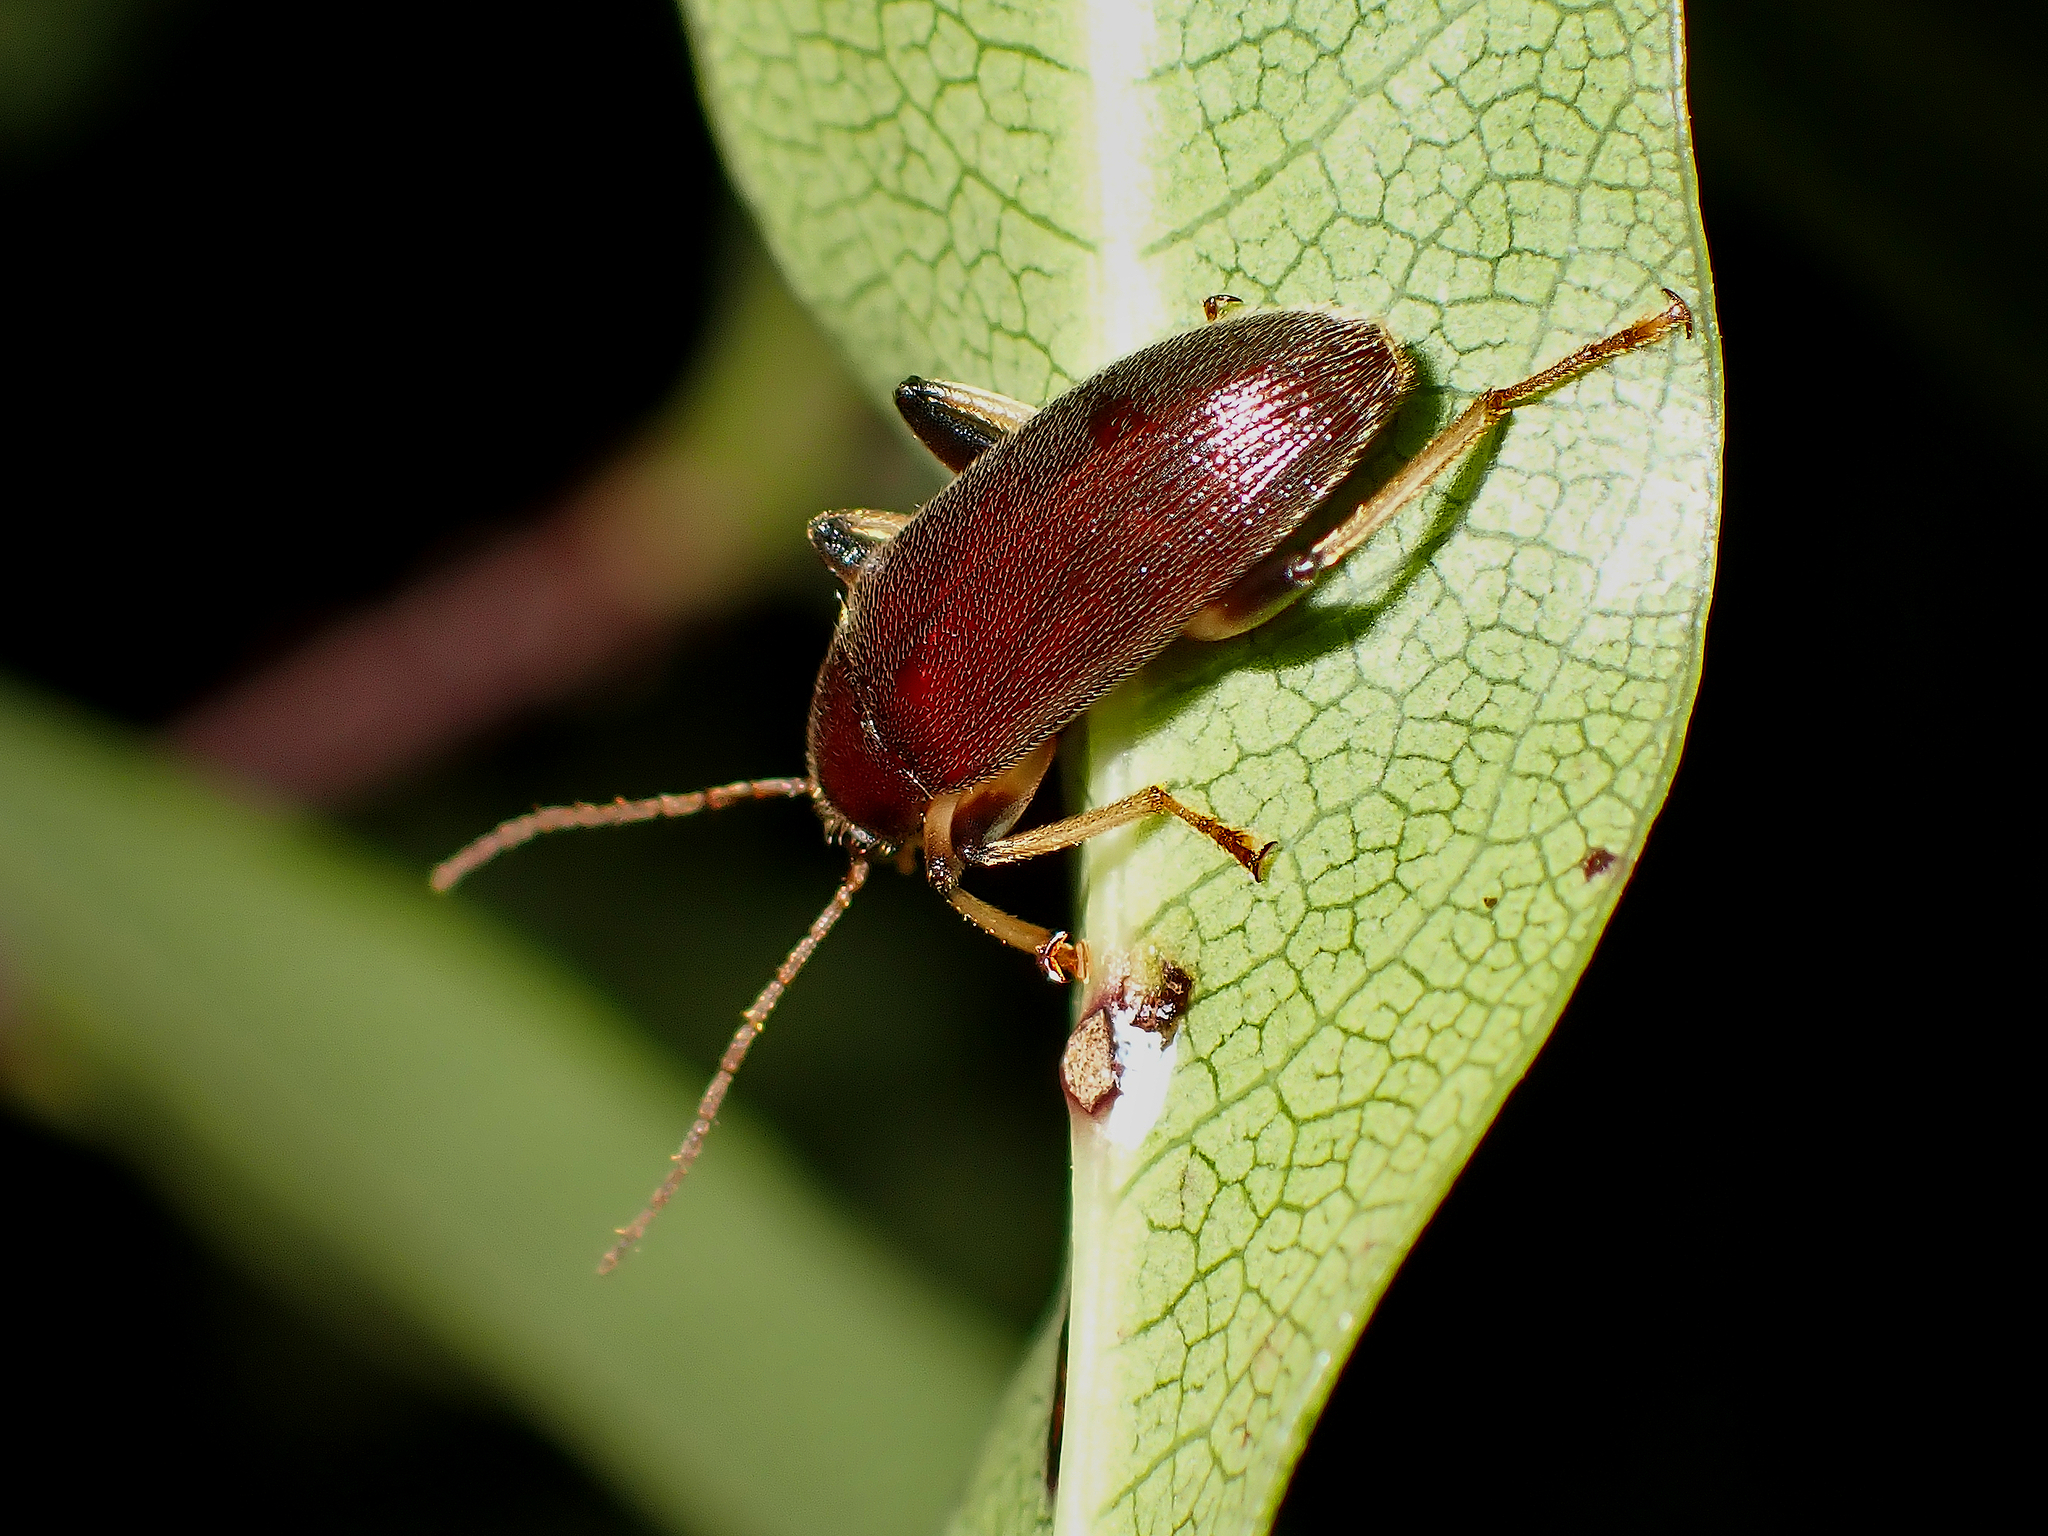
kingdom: Animalia
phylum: Arthropoda
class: Insecta
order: Coleoptera
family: Tenebrionidae
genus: Homotrysis
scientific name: Homotrysis
